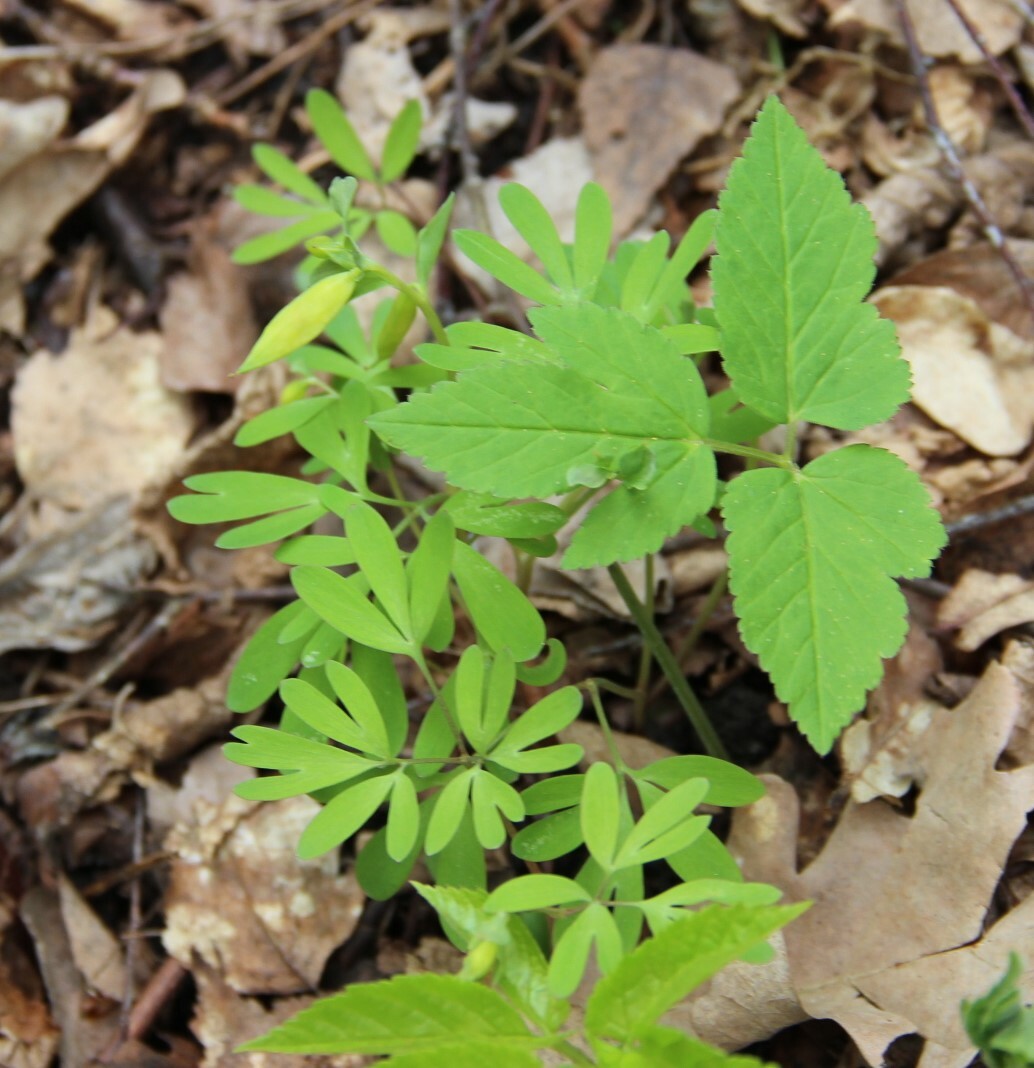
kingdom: Plantae
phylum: Tracheophyta
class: Magnoliopsida
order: Ranunculales
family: Papaveraceae
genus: Corydalis
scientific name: Corydalis intermedia
